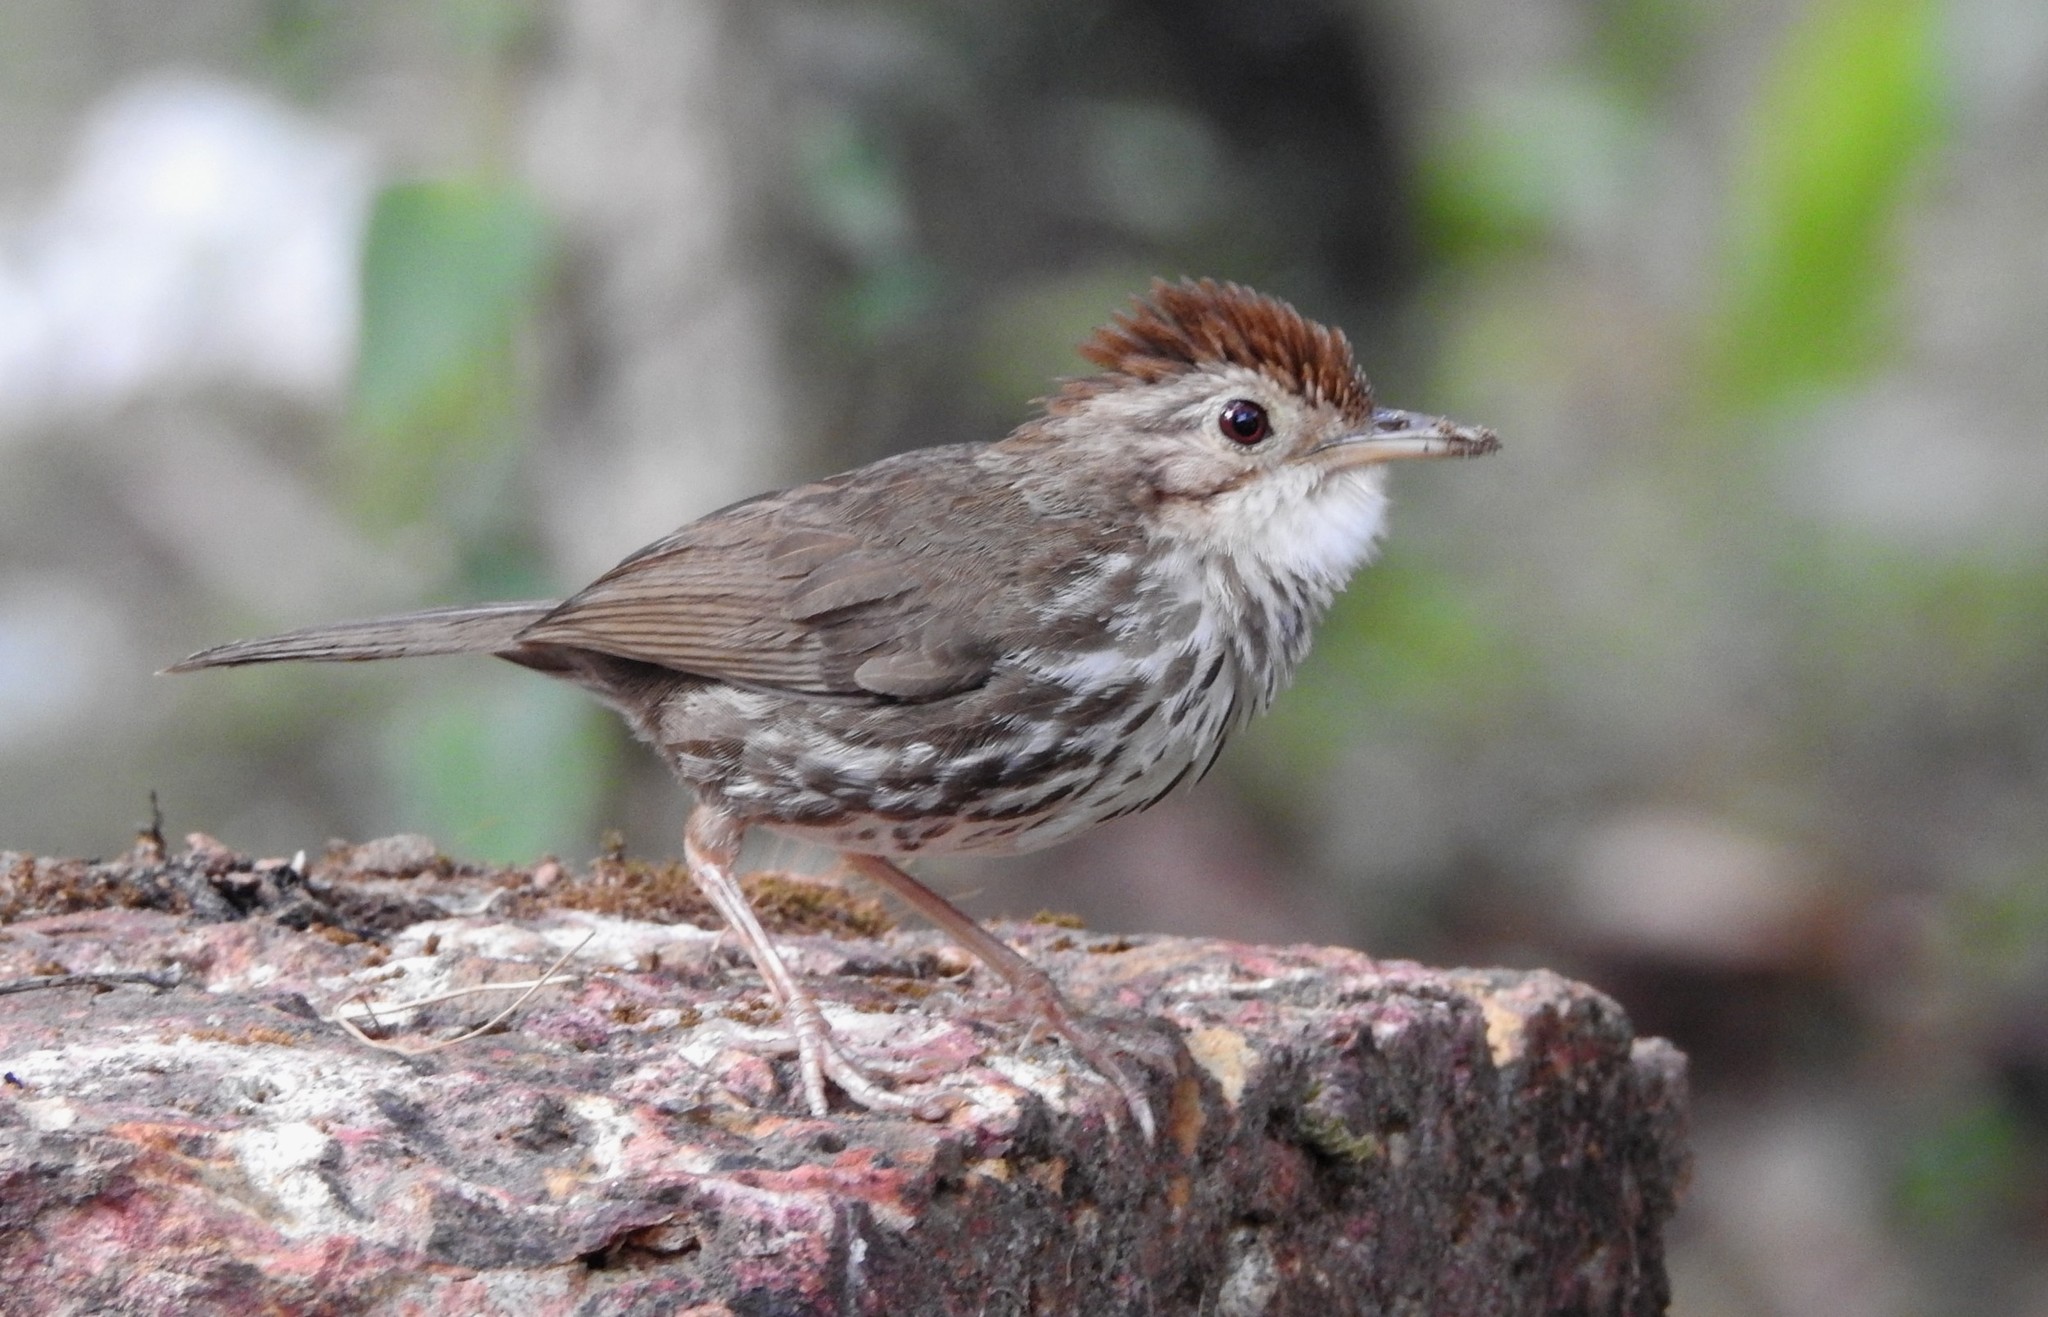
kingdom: Animalia
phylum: Chordata
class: Aves
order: Passeriformes
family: Pellorneidae
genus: Pellorneum
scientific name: Pellorneum ruficeps
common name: Puff-throated babbler
